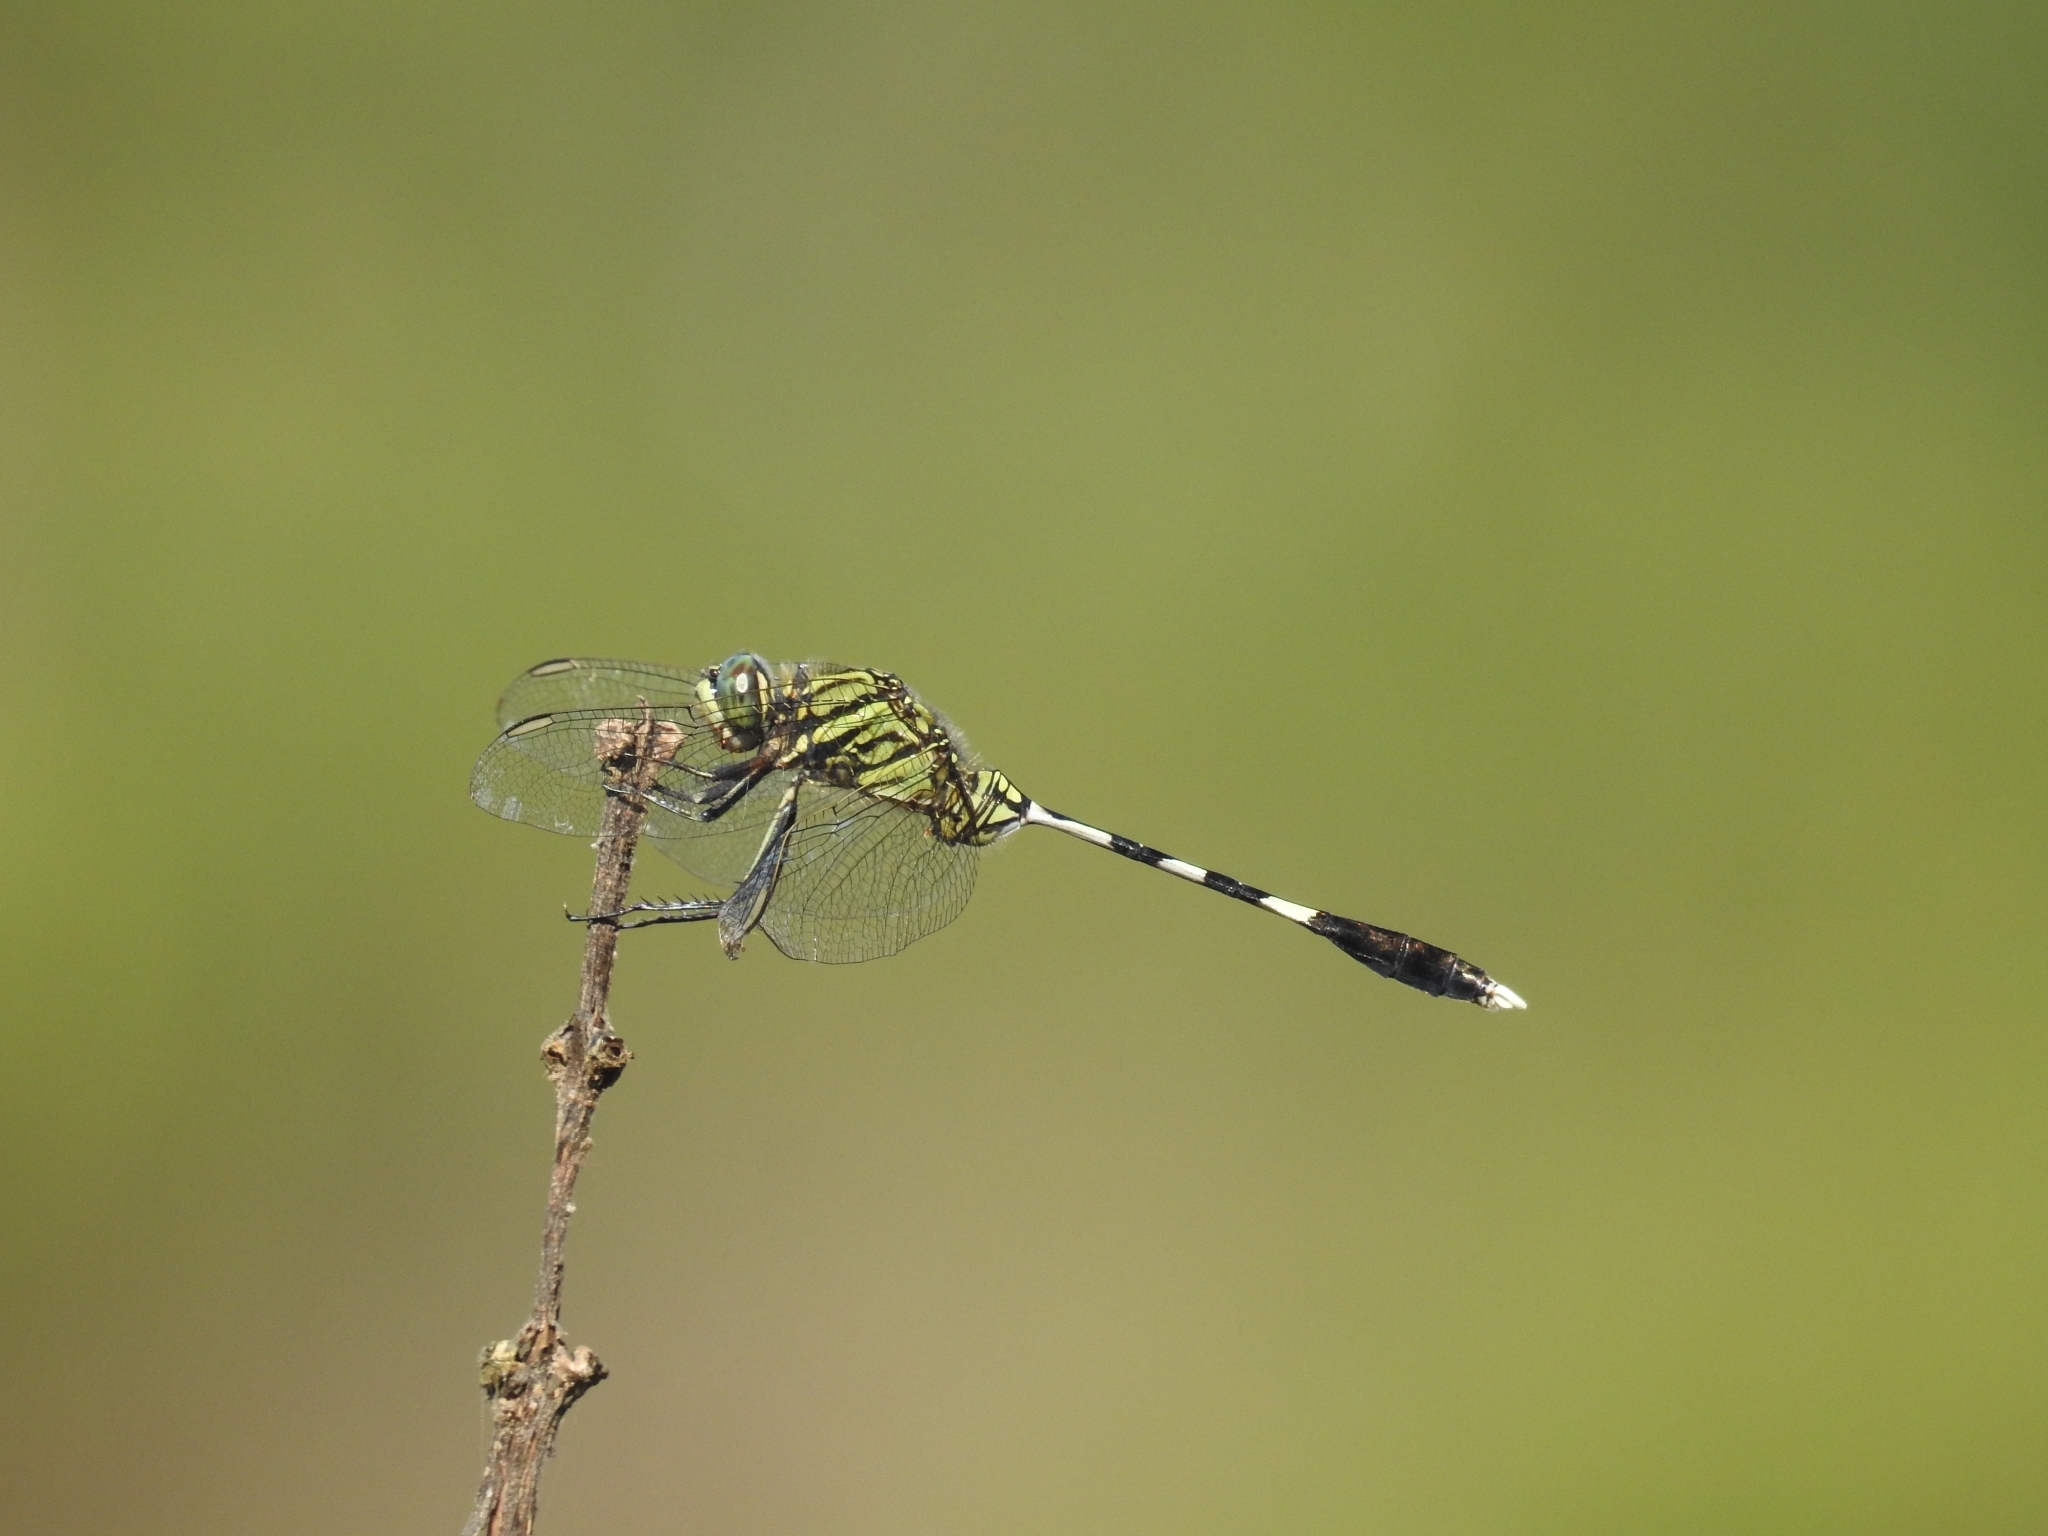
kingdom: Animalia
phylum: Arthropoda
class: Insecta
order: Odonata
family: Libellulidae
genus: Orthetrum
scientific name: Orthetrum sabina
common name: Slender skimmer
